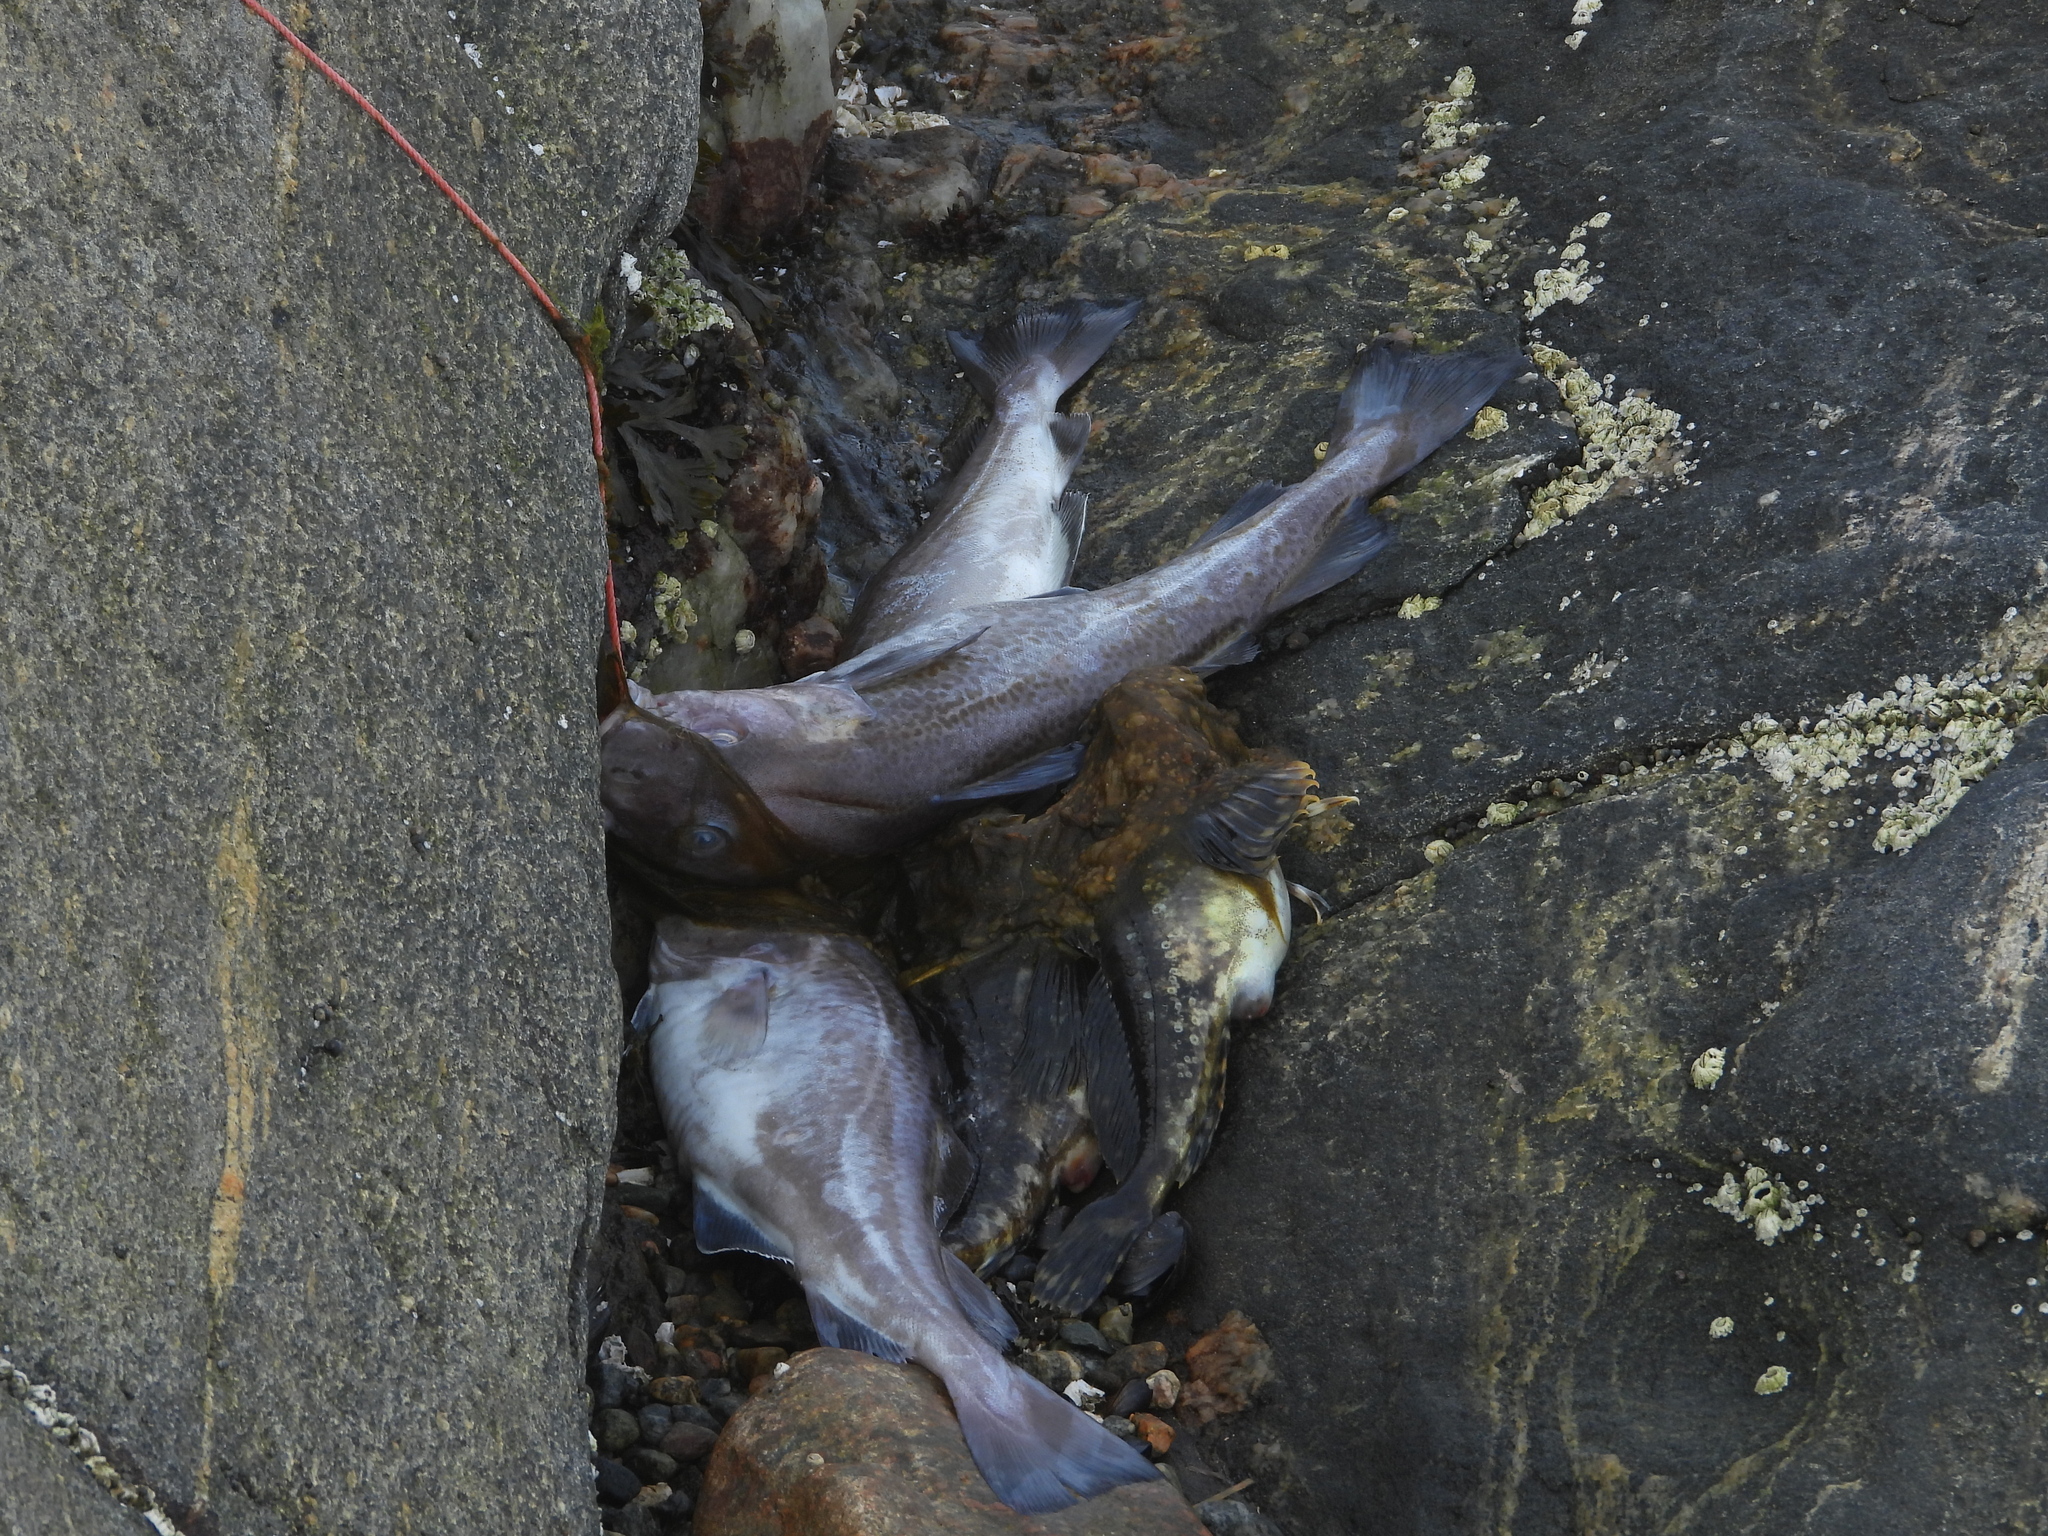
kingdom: Animalia
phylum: Chordata
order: Gadiformes
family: Gadidae
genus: Gadus
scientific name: Gadus morhua
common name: Atlantic cod
